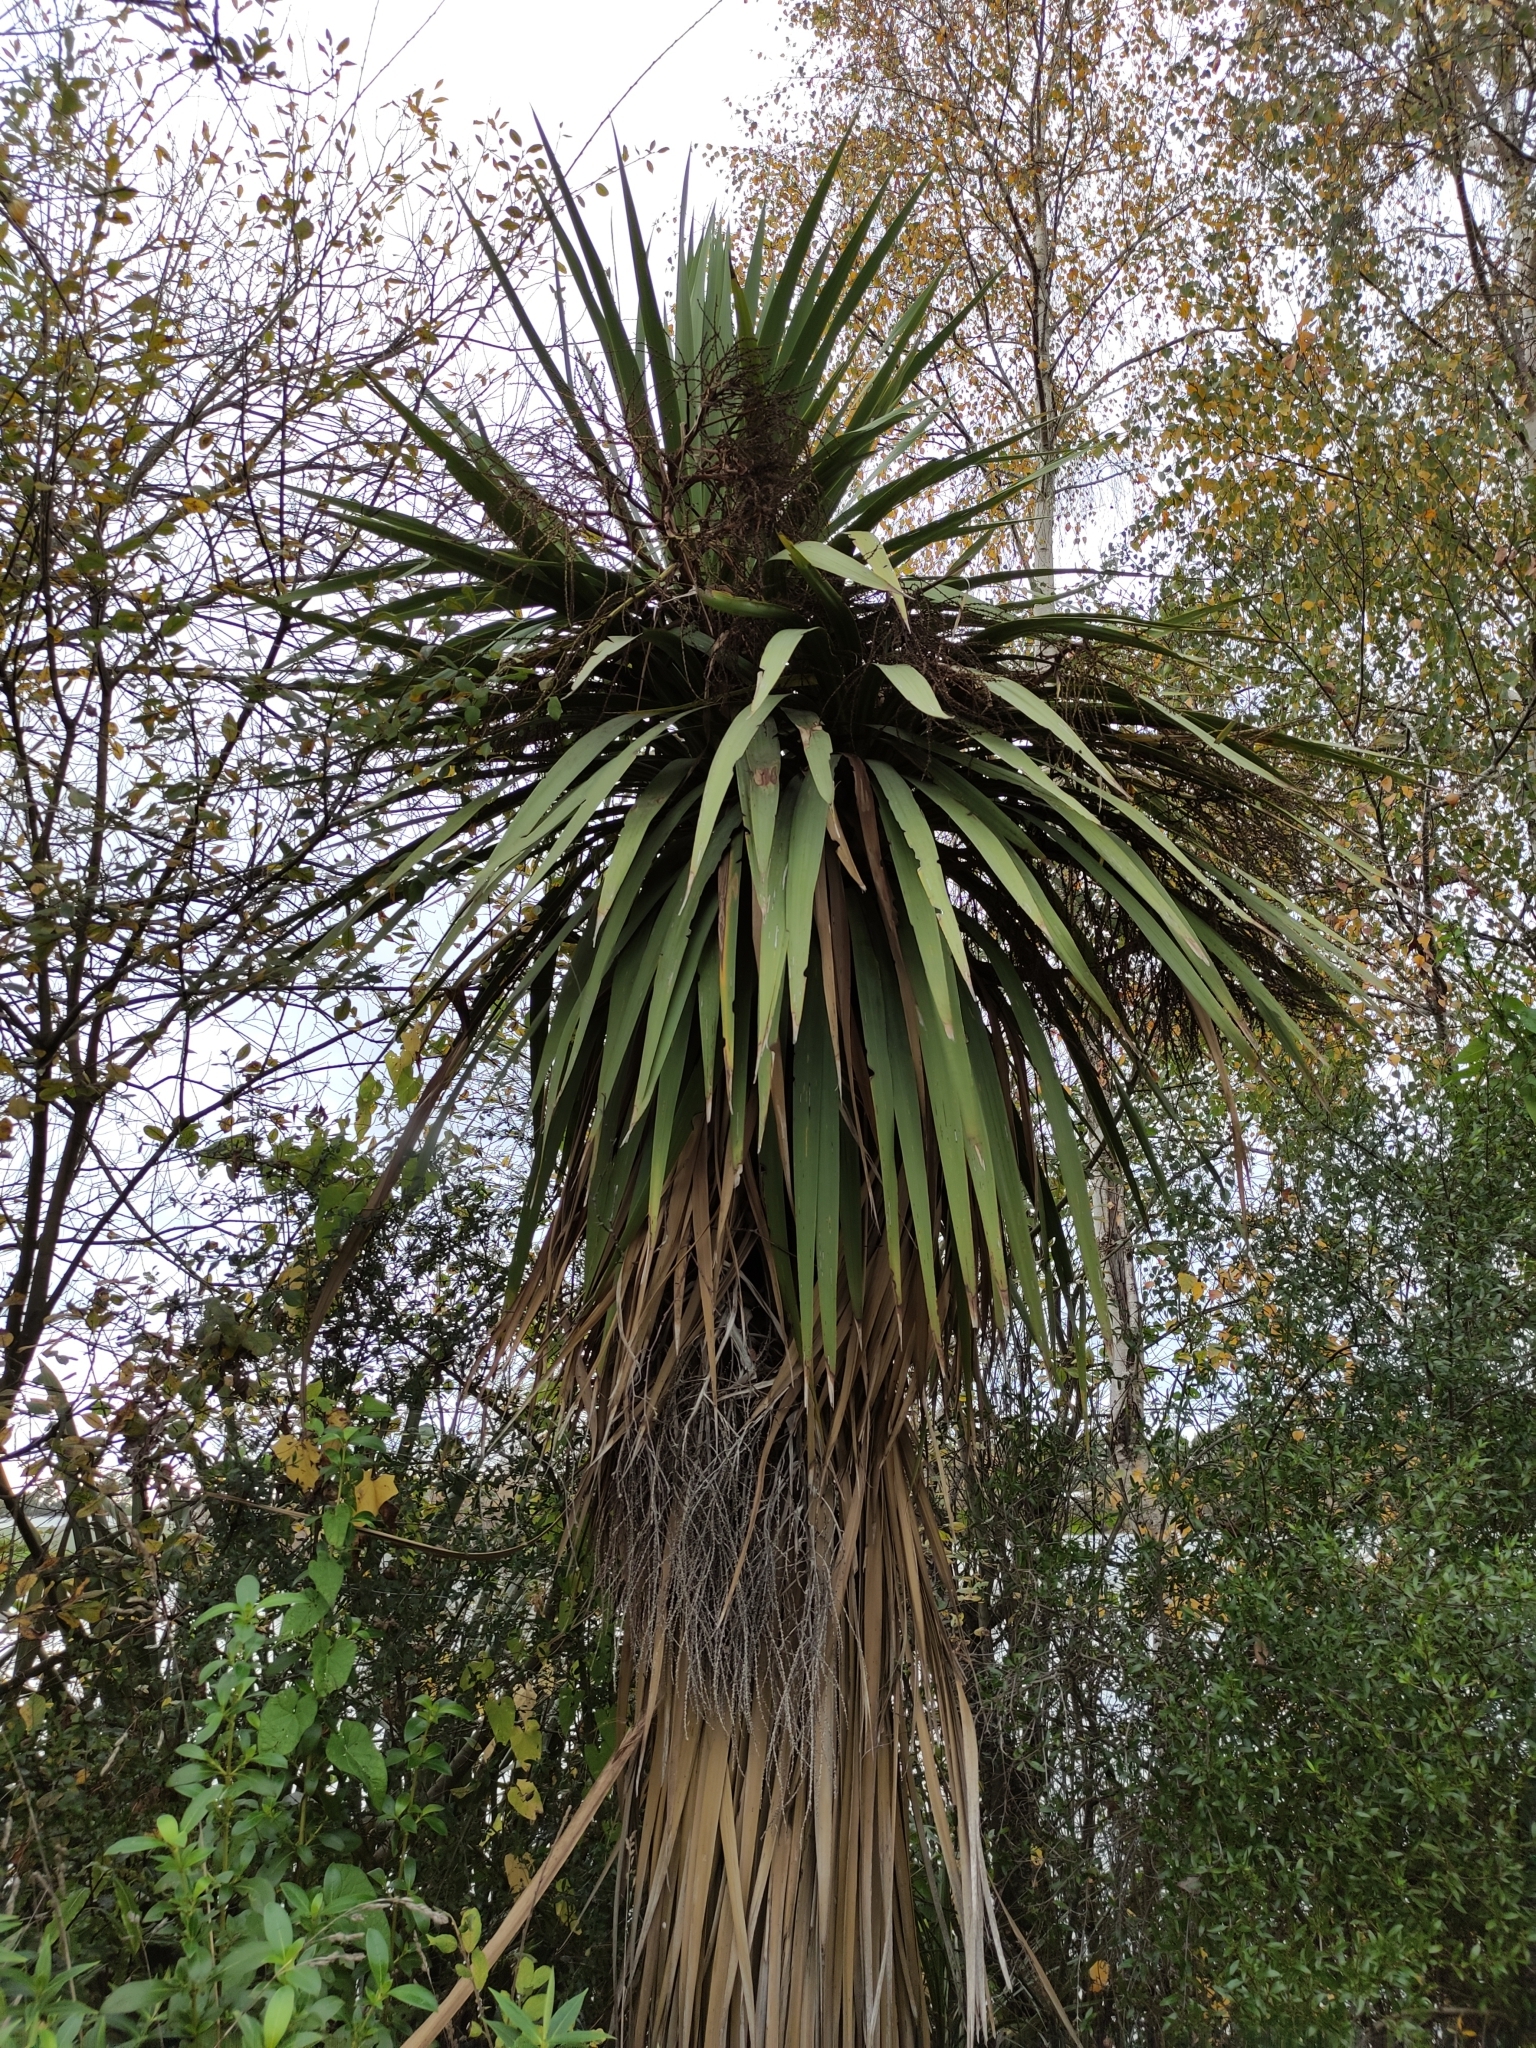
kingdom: Plantae
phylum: Tracheophyta
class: Liliopsida
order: Asparagales
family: Asparagaceae
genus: Cordyline
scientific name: Cordyline australis
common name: Cabbage-palm
